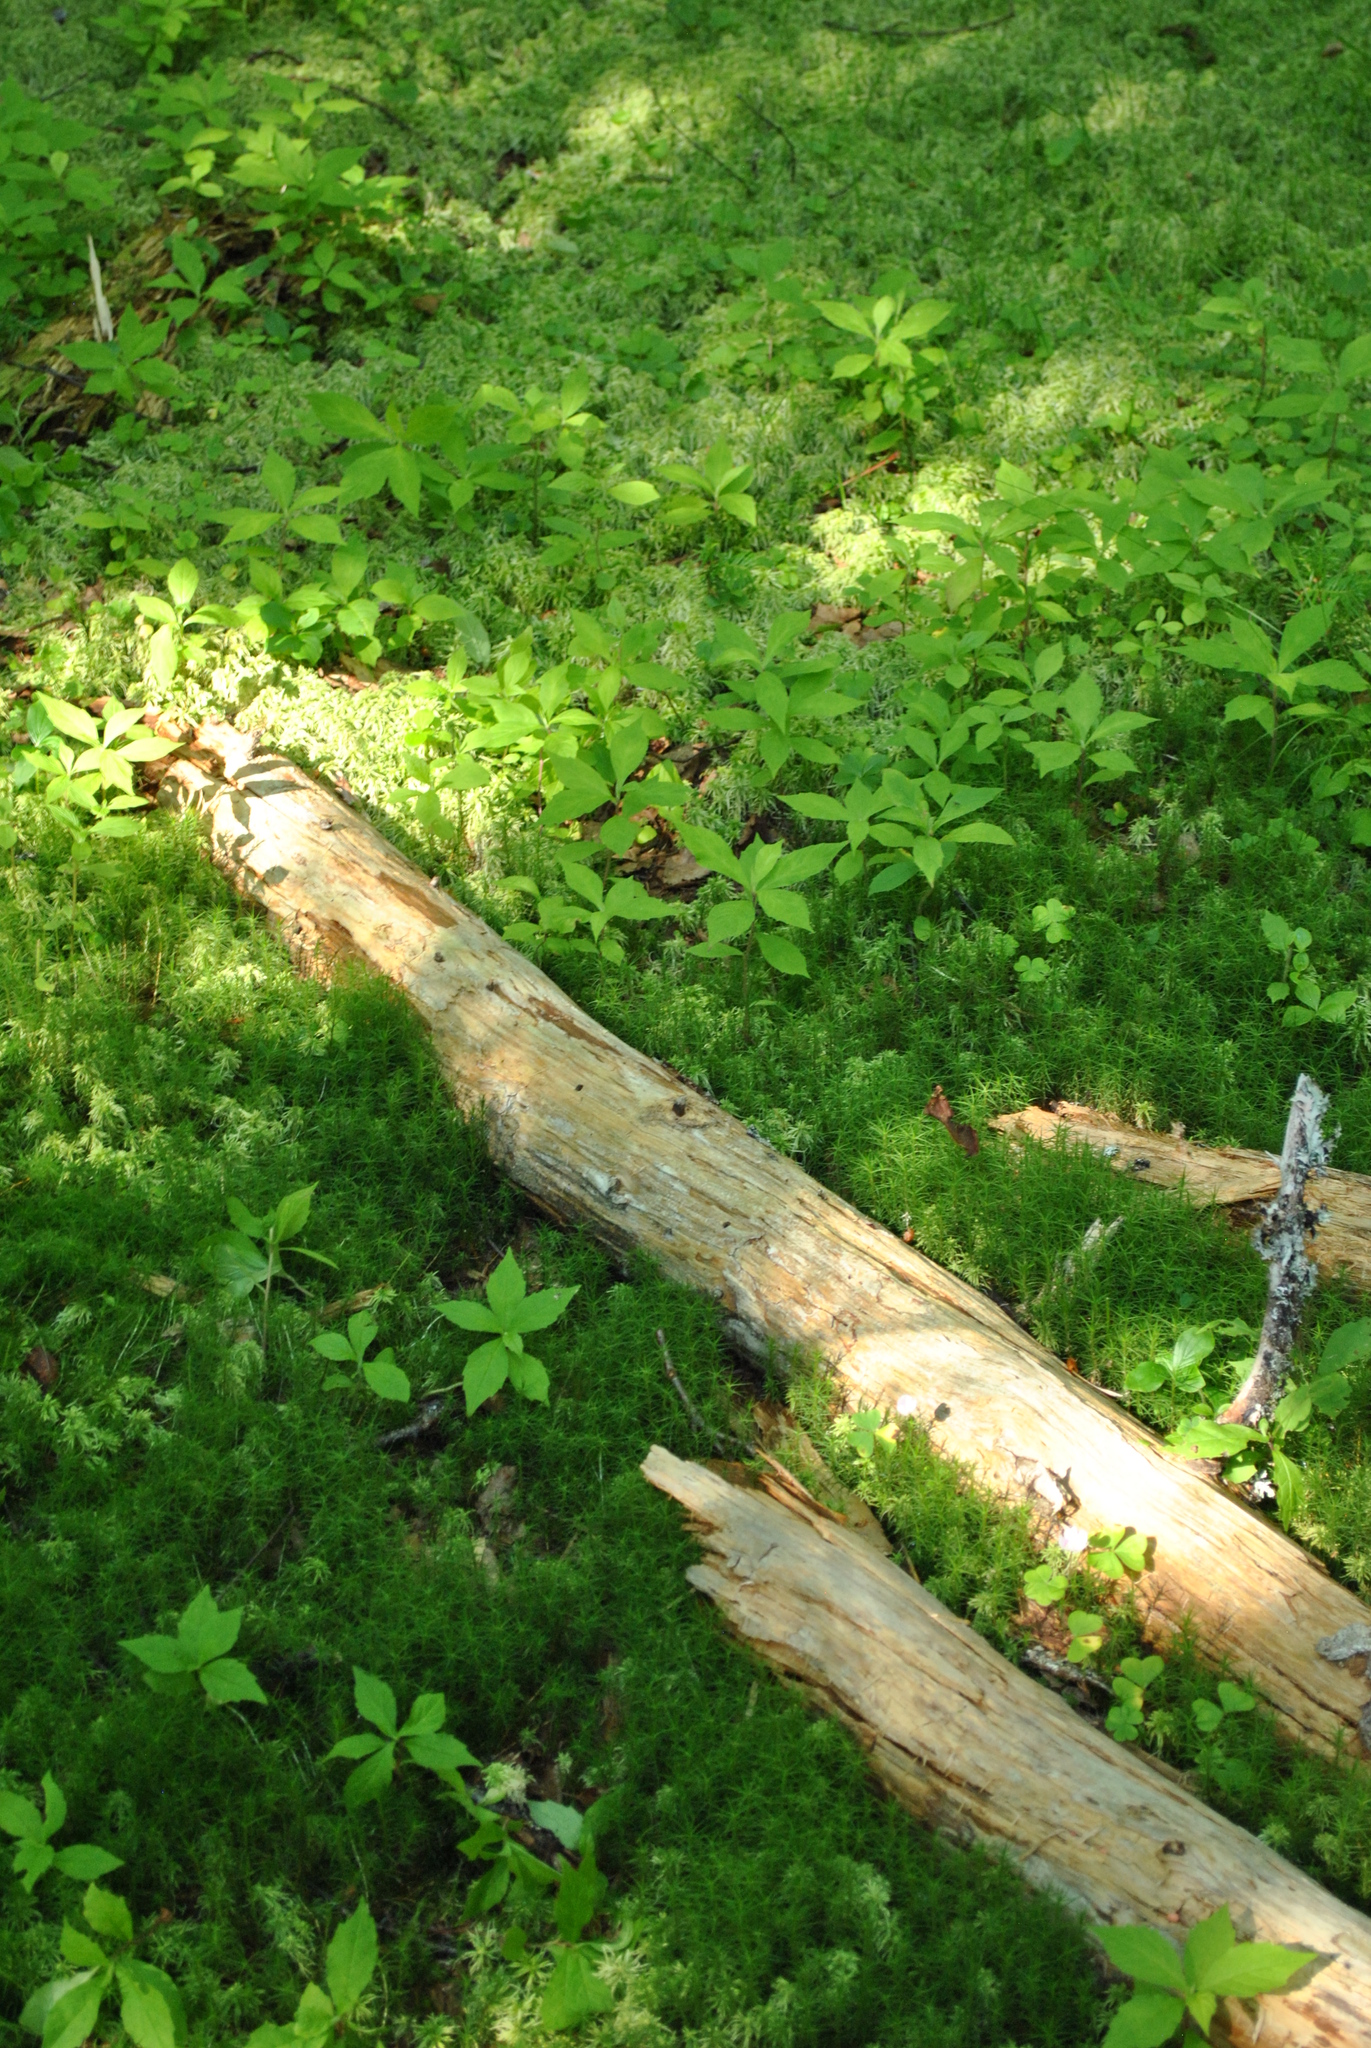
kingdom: Plantae
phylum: Tracheophyta
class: Magnoliopsida
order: Oxalidales
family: Oxalidaceae
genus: Oxalis
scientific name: Oxalis montana
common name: American wood-sorrel
